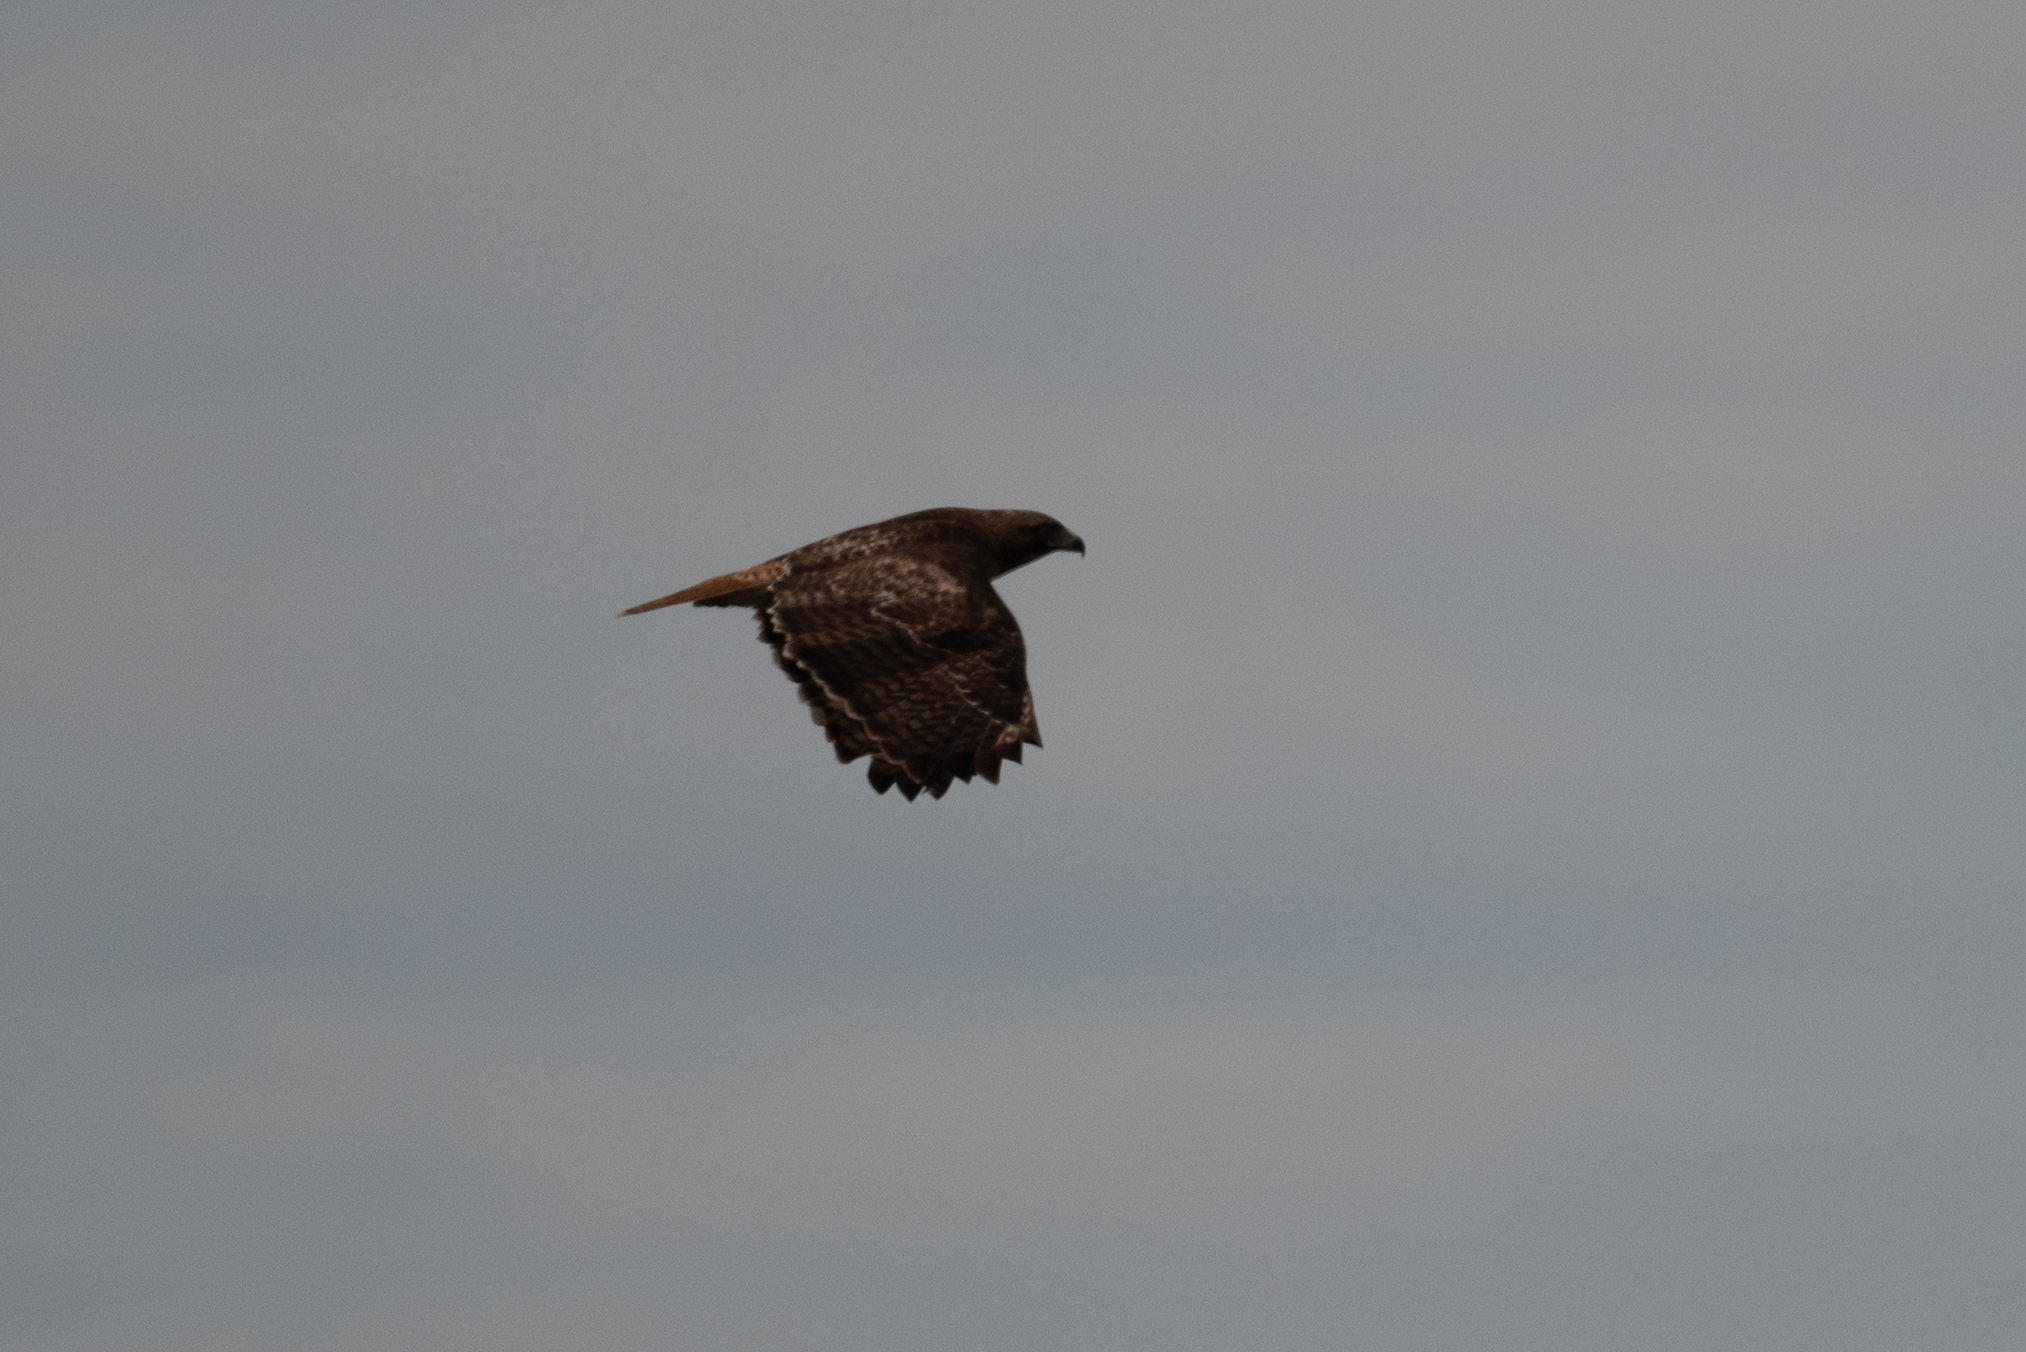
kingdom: Animalia
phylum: Chordata
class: Aves
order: Accipitriformes
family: Accipitridae
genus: Buteo
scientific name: Buteo jamaicensis
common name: Red-tailed hawk
